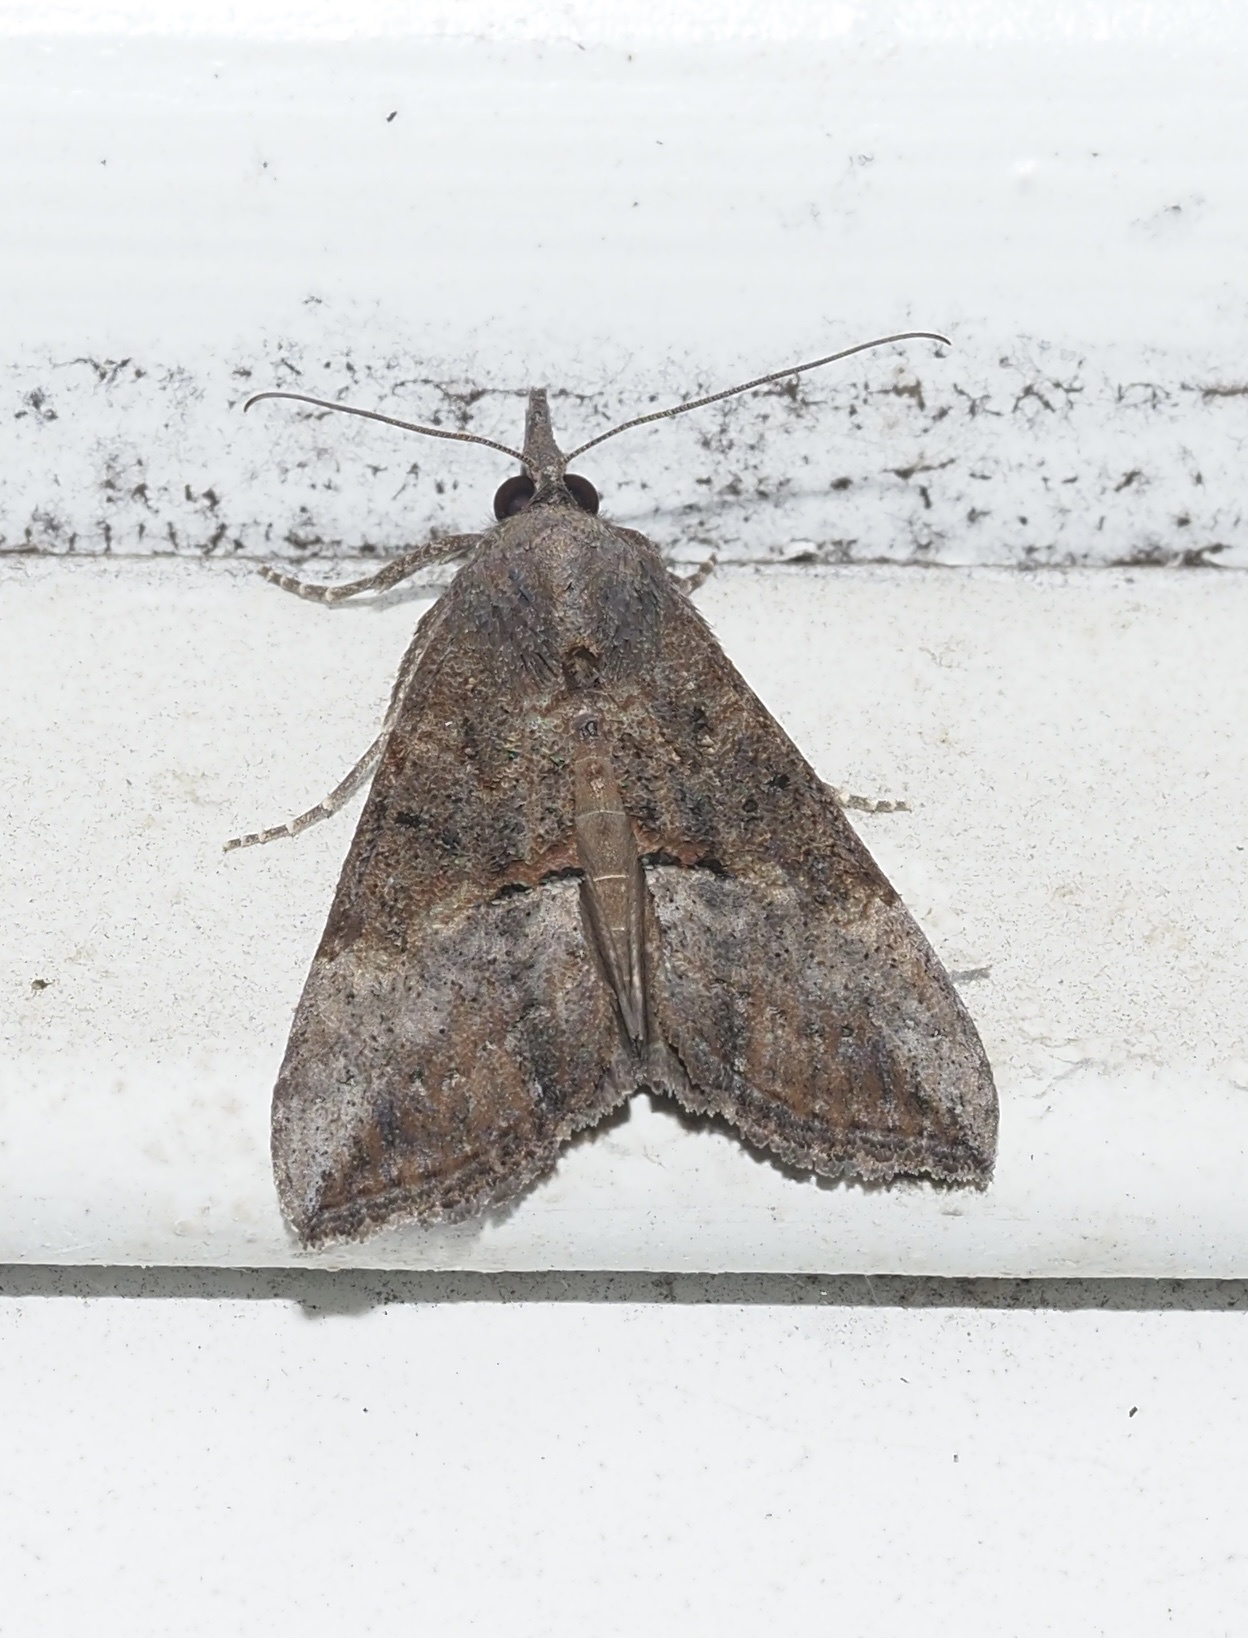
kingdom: Animalia
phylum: Arthropoda
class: Insecta
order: Lepidoptera
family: Erebidae
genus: Hypena
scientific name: Hypena scabra
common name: Green cloverworm
